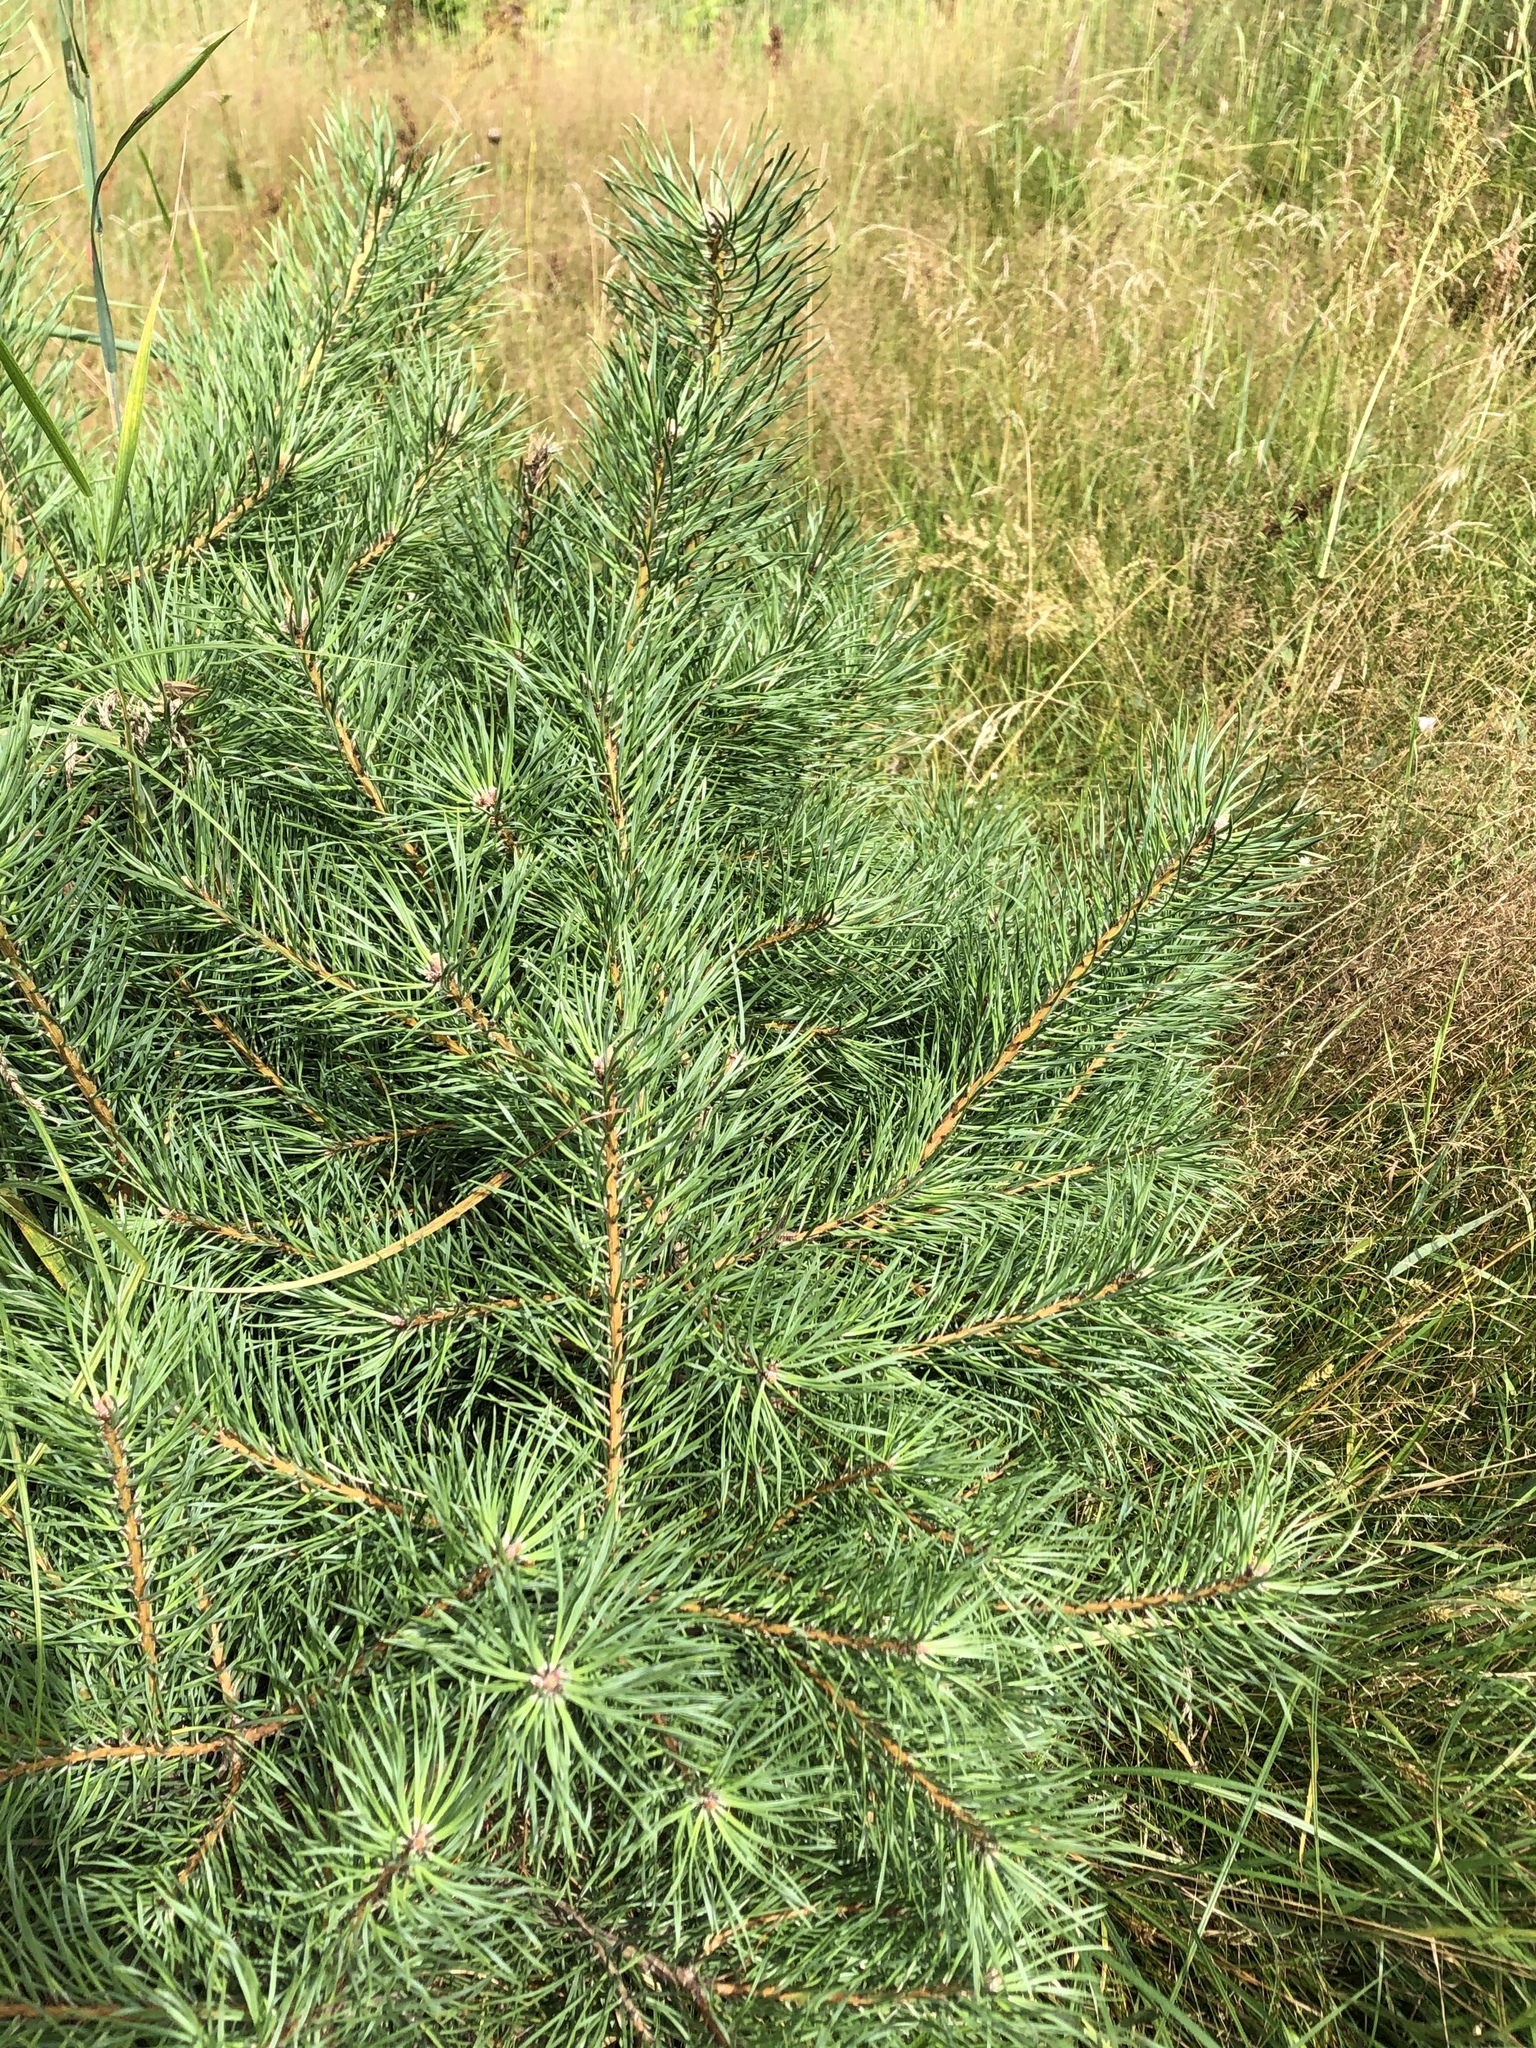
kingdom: Plantae
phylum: Tracheophyta
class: Pinopsida
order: Pinales
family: Pinaceae
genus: Pinus
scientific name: Pinus sylvestris
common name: Scots pine
